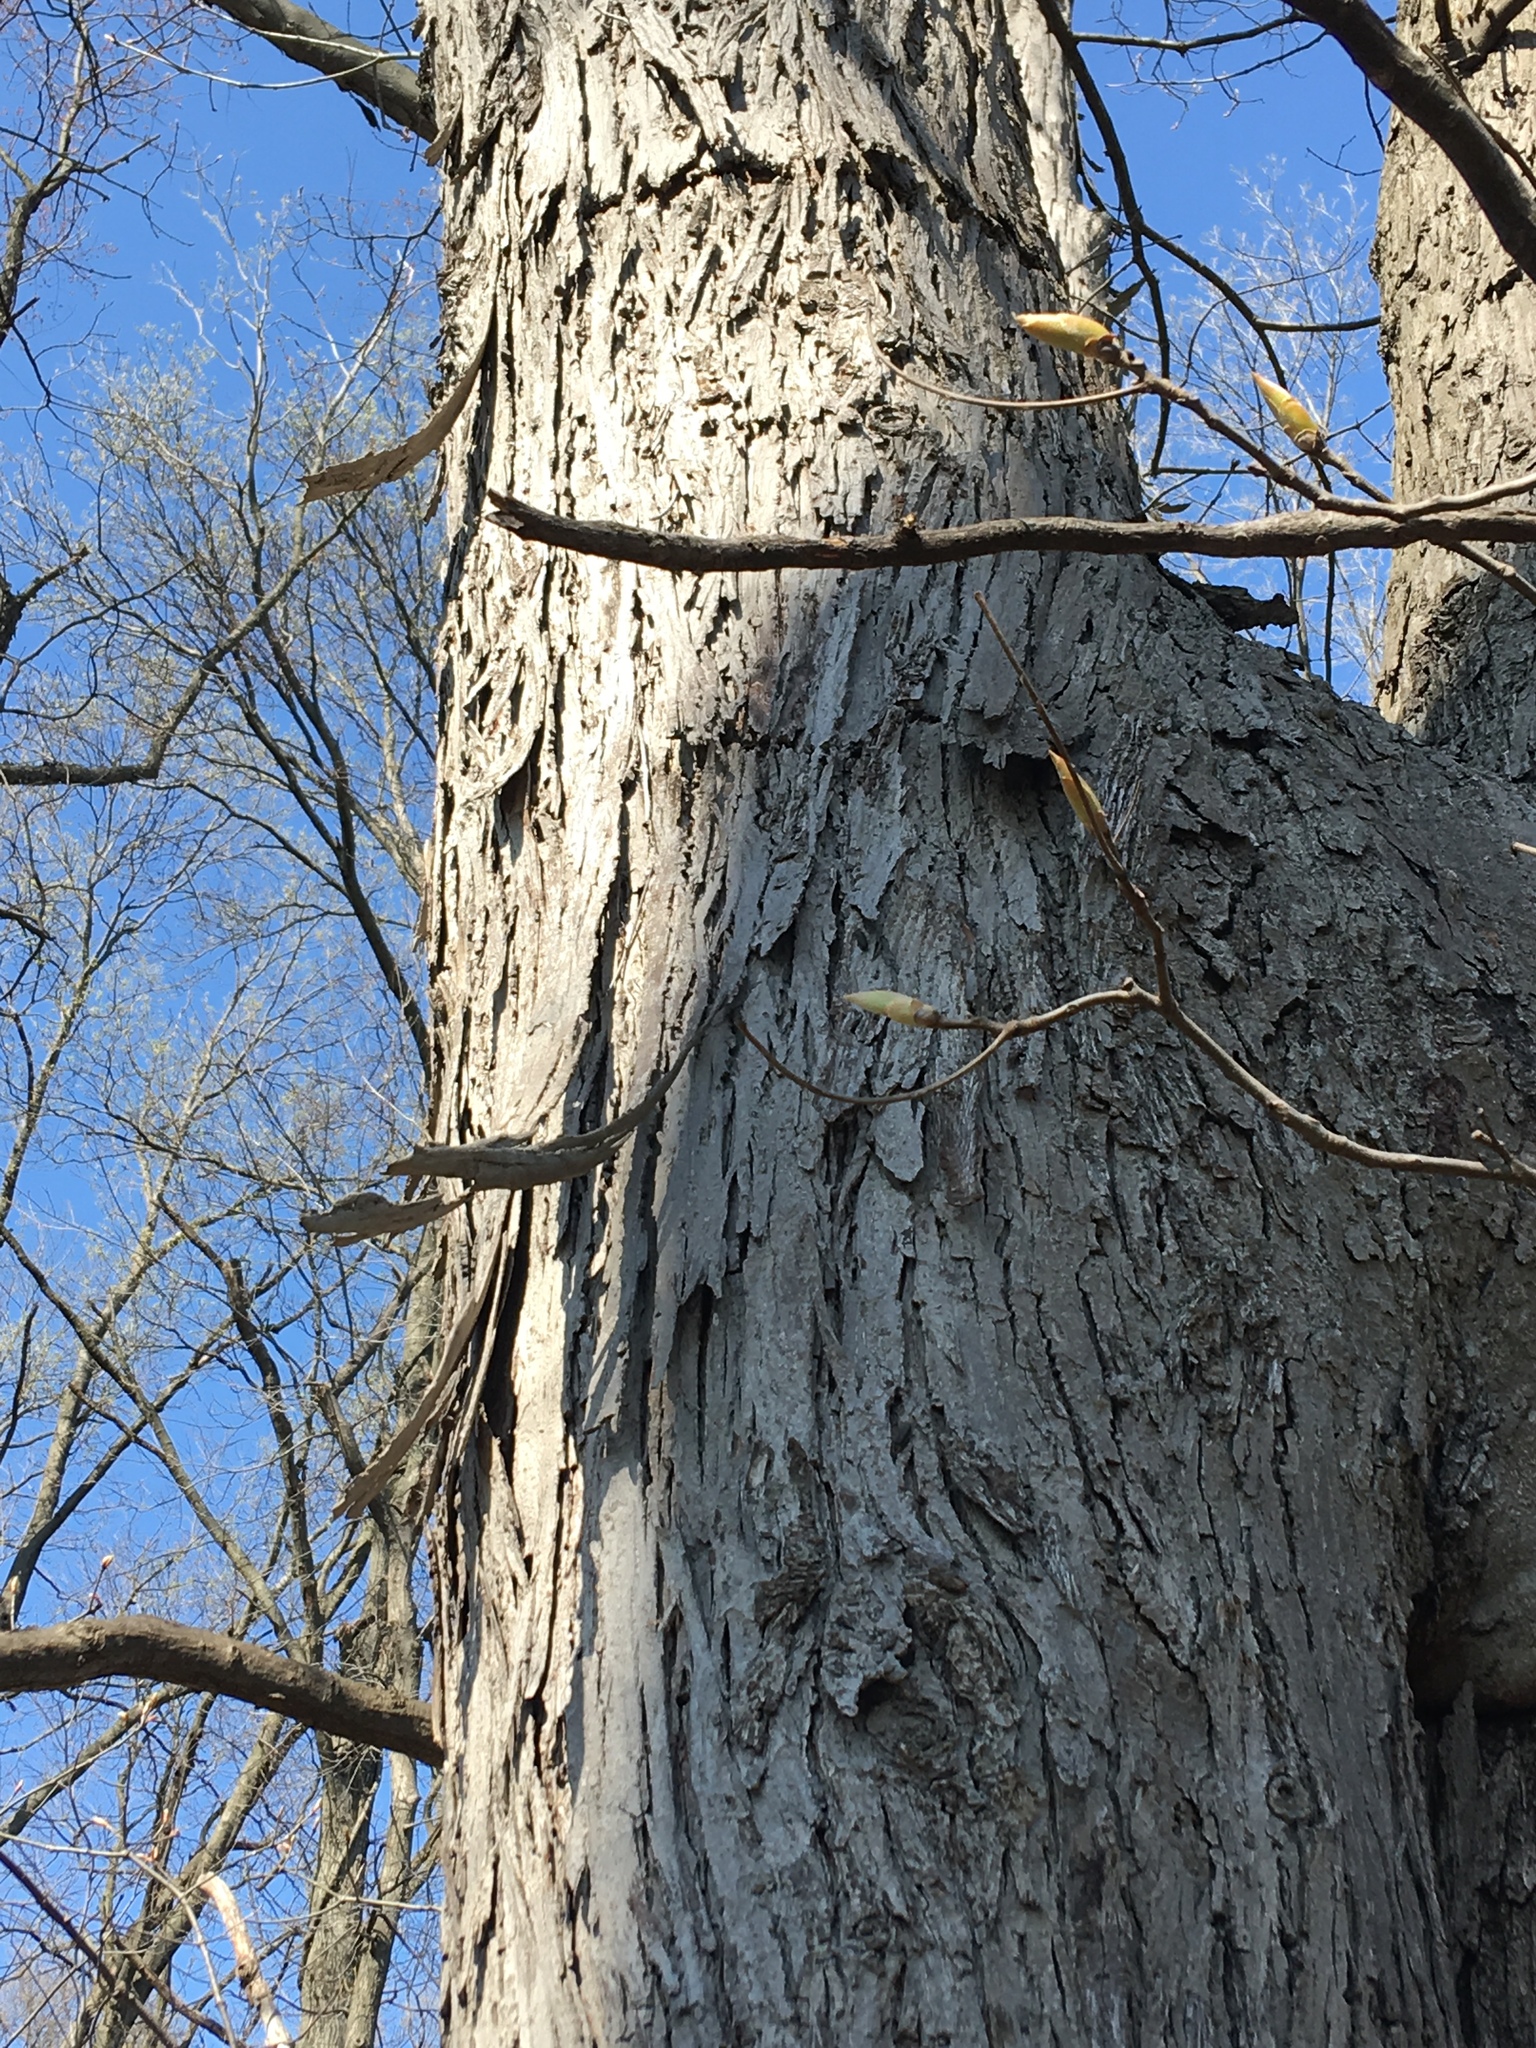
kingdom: Plantae
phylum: Tracheophyta
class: Magnoliopsida
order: Fagales
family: Juglandaceae
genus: Carya
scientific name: Carya ovata
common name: Shagbark hickory
